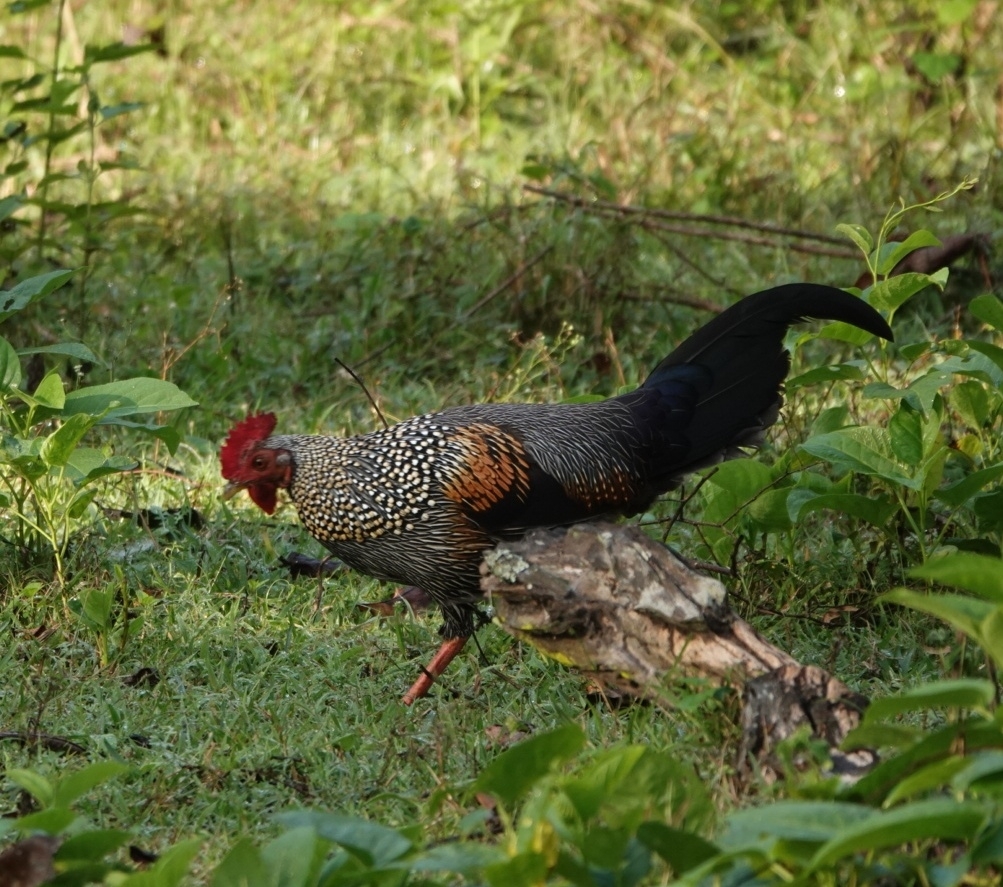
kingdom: Animalia
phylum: Chordata
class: Aves
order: Galliformes
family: Phasianidae
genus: Gallus
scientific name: Gallus sonneratii
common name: Grey junglefowl
